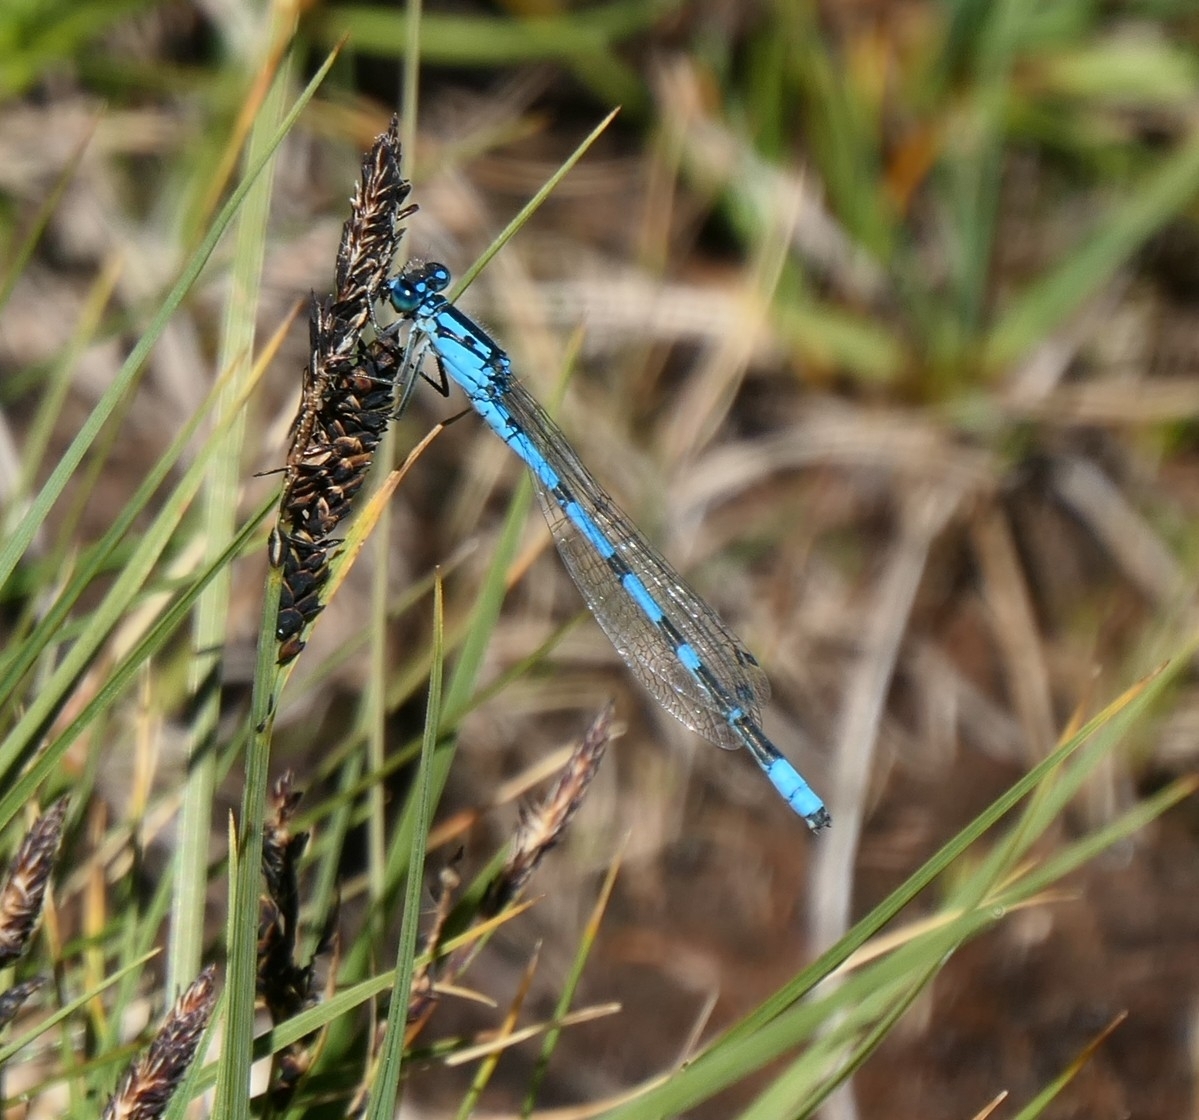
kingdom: Animalia
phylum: Arthropoda
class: Insecta
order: Odonata
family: Coenagrionidae
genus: Enallagma
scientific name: Enallagma cyathigerum
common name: Common blue damselfly
